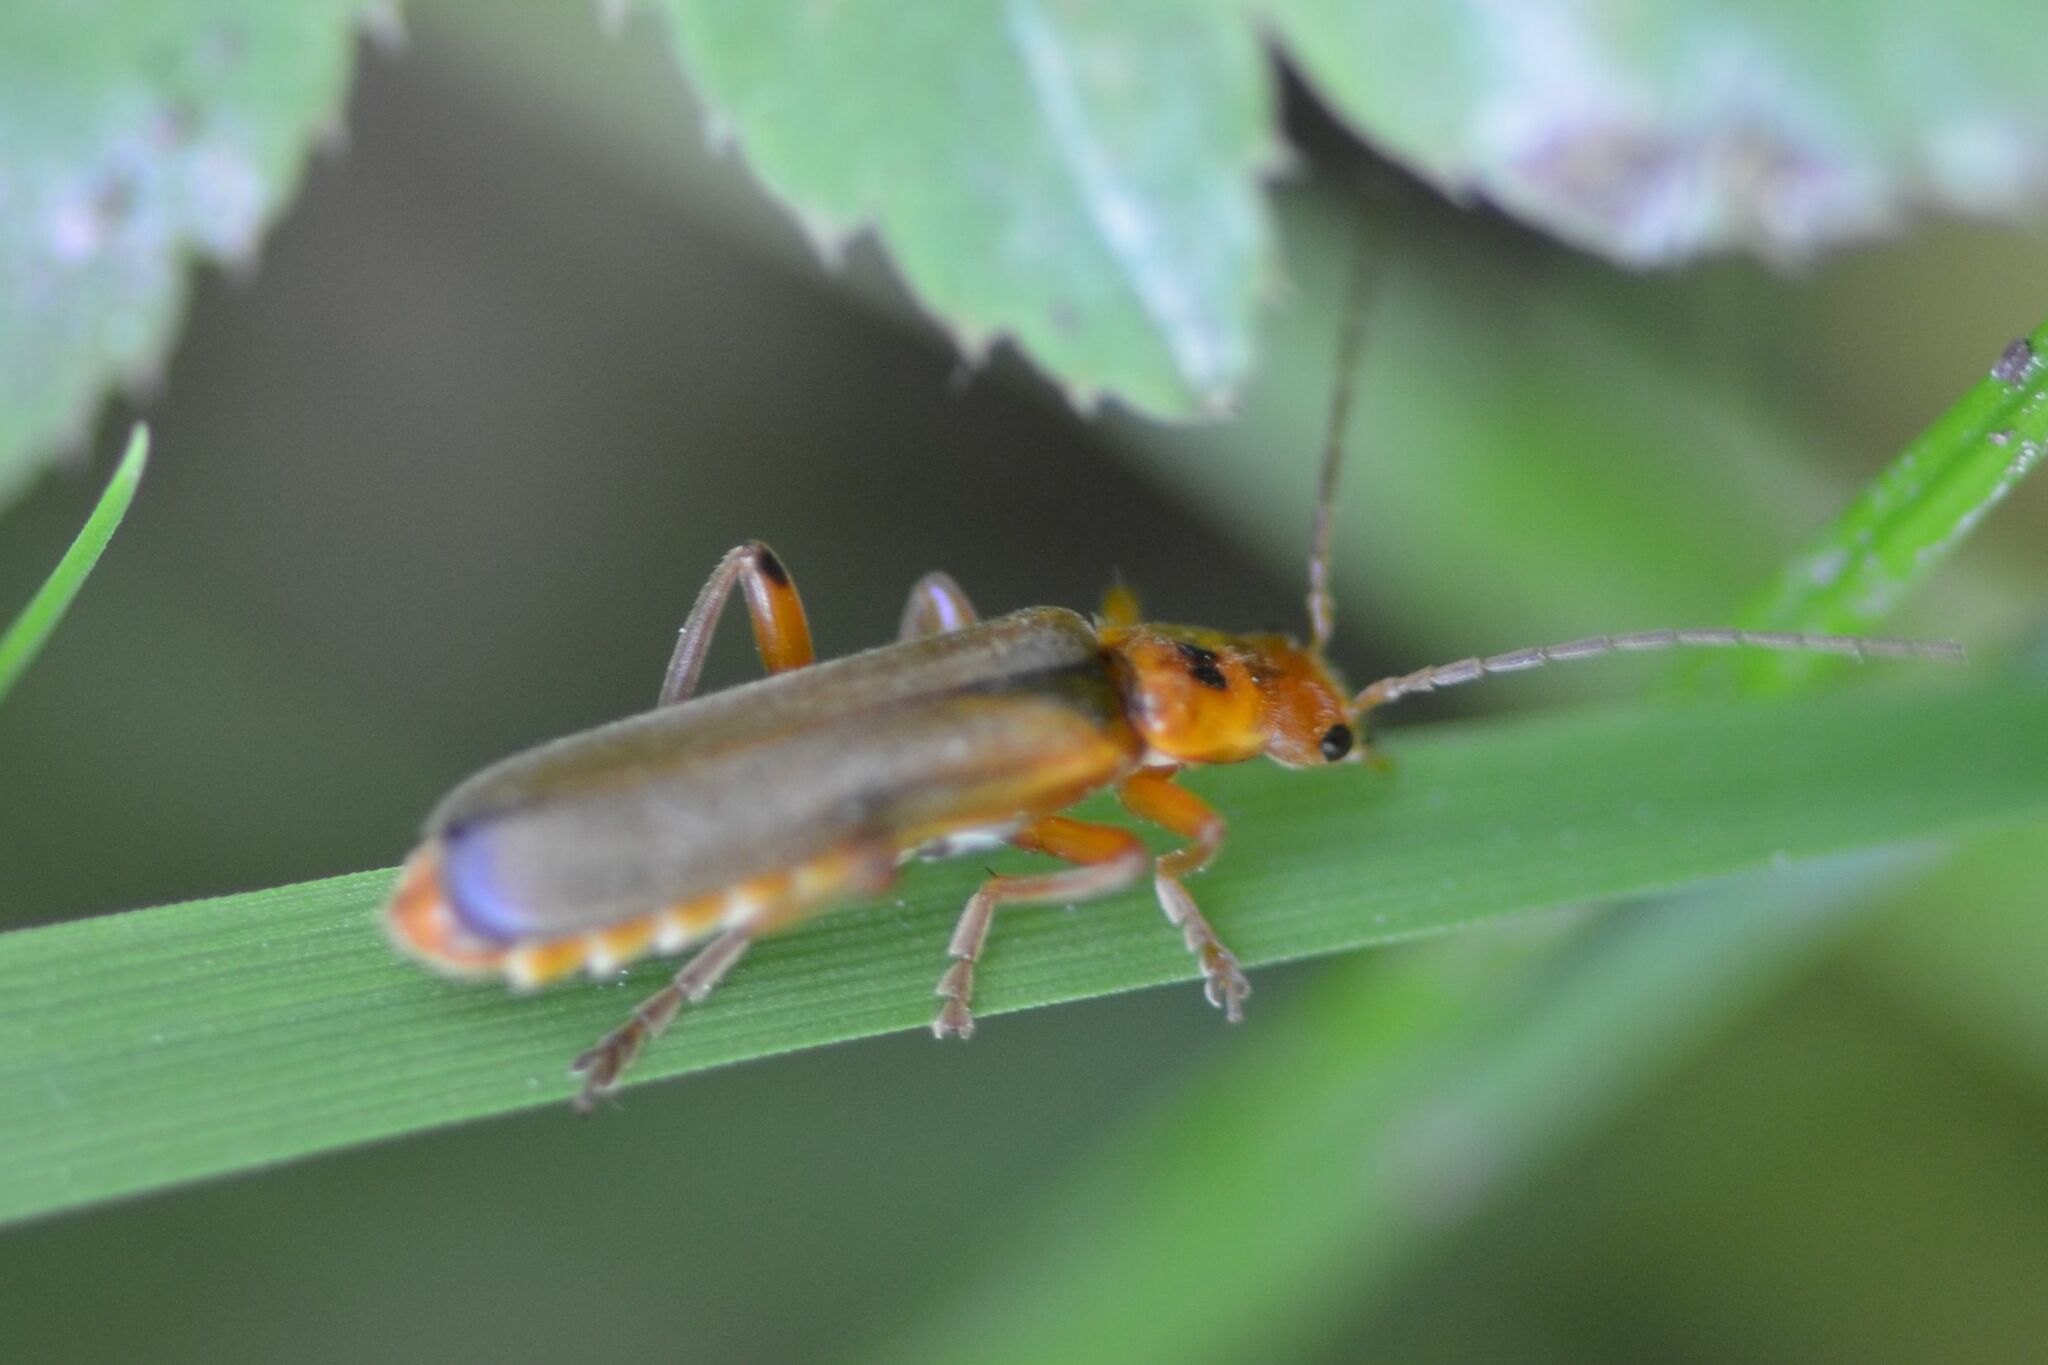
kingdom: Animalia
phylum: Arthropoda
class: Insecta
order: Coleoptera
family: Cantharidae
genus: Metacantharis
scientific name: Metacantharis discoidea
